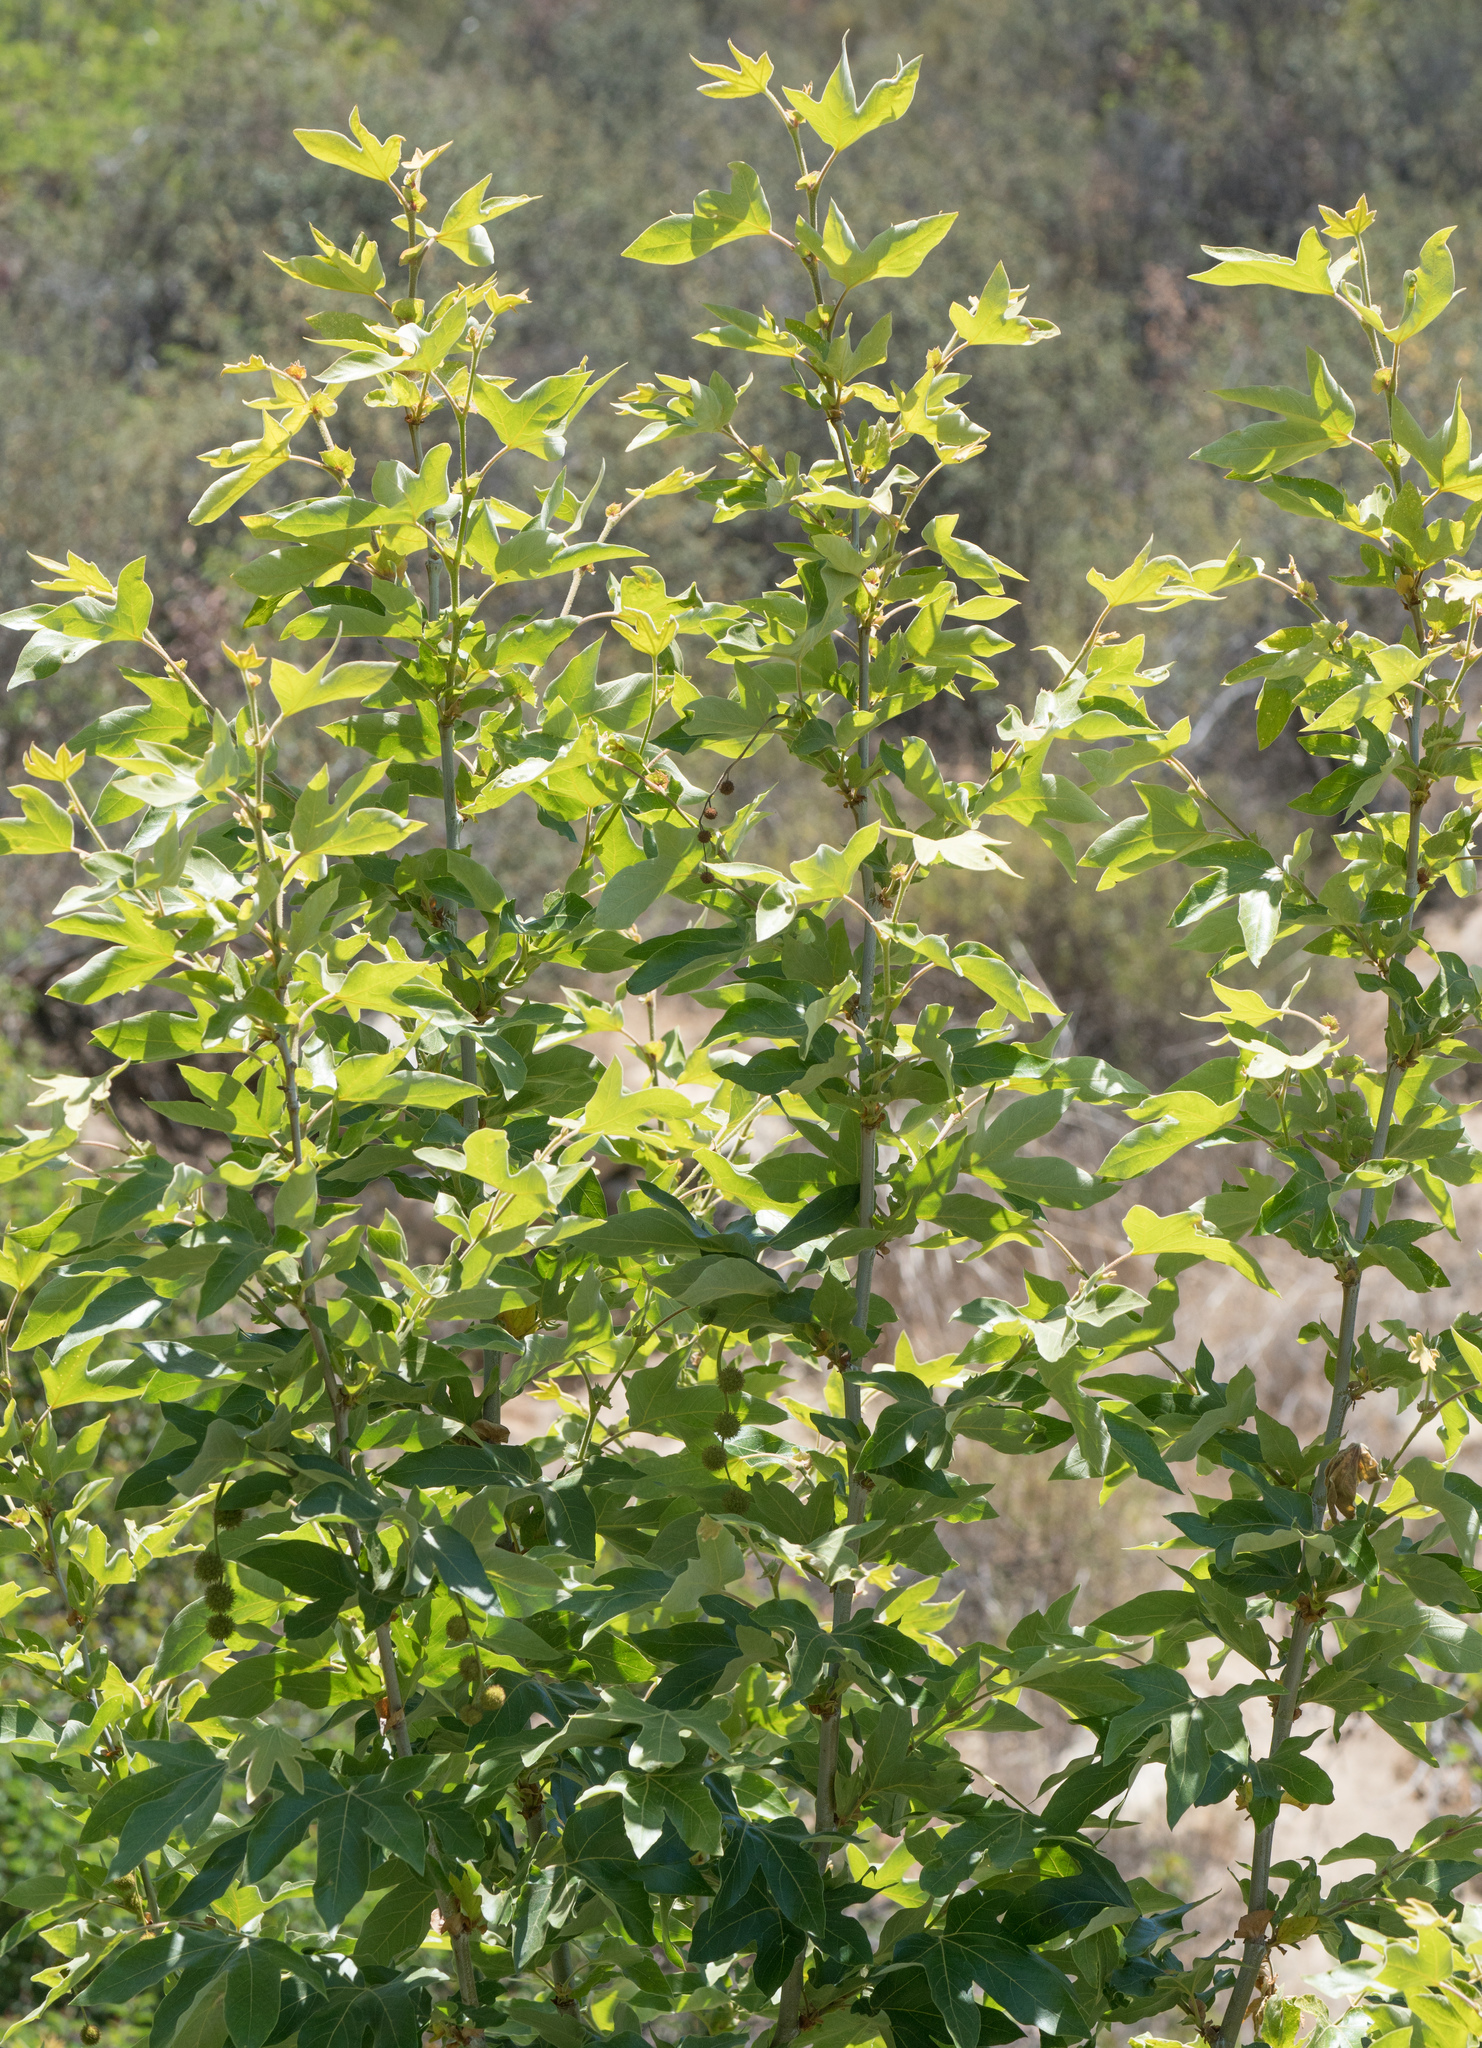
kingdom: Plantae
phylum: Tracheophyta
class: Magnoliopsida
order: Proteales
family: Platanaceae
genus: Platanus
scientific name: Platanus racemosa
